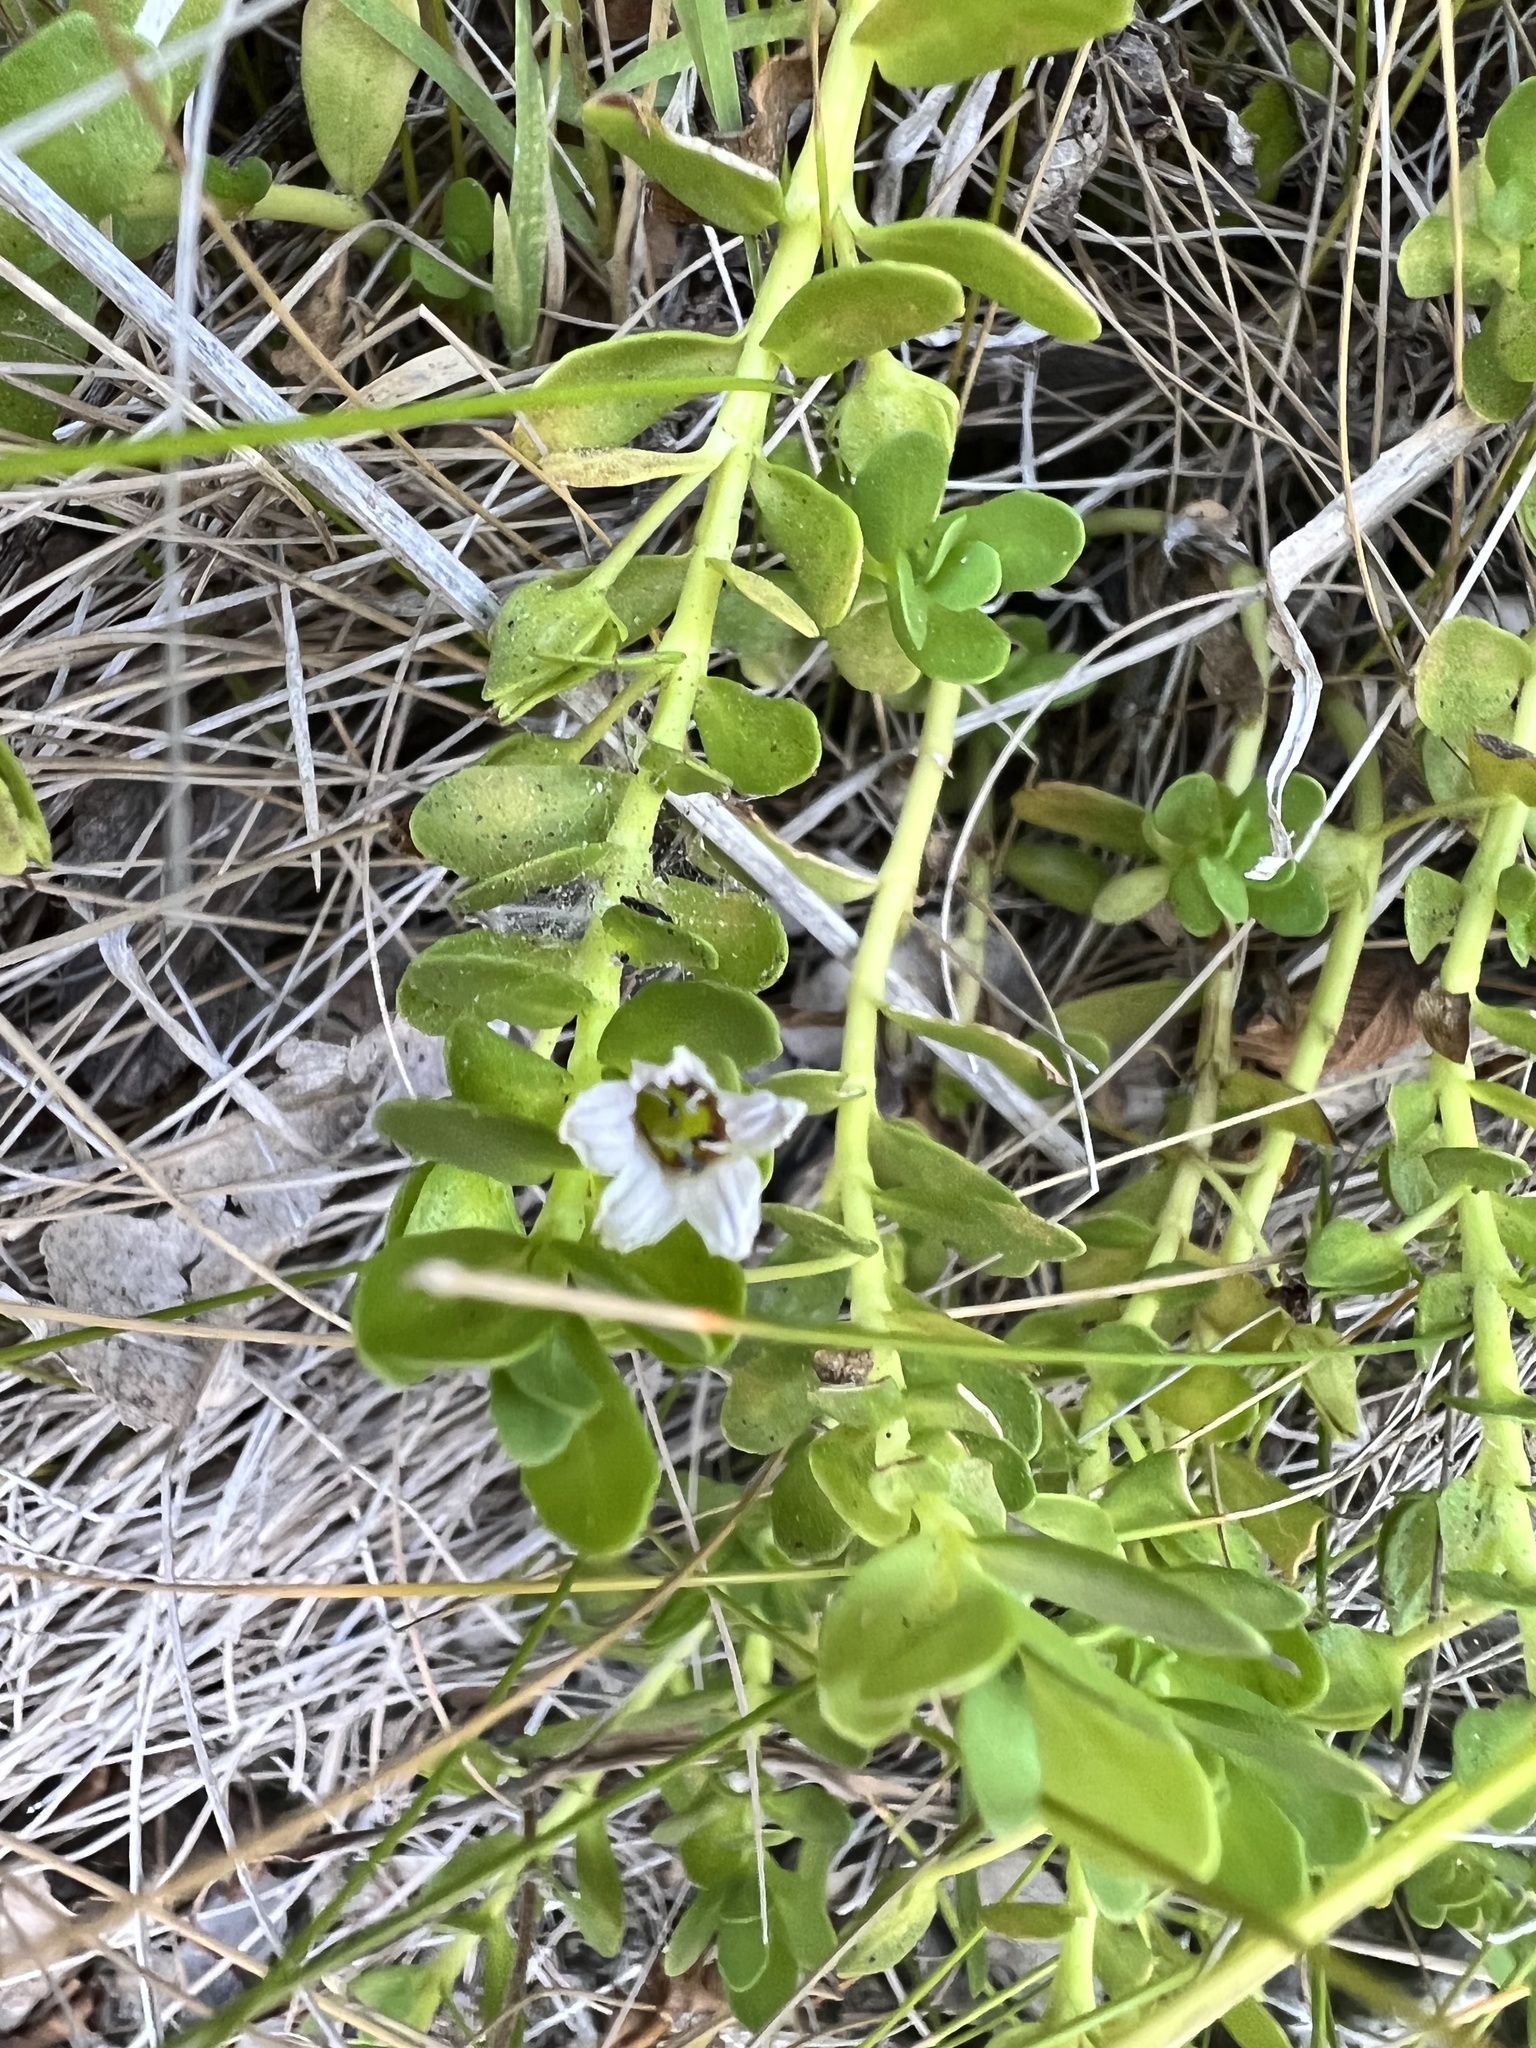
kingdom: Plantae
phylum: Tracheophyta
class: Magnoliopsida
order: Lamiales
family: Plantaginaceae
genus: Bacopa
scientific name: Bacopa monnieri
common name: Indian-pennywort
